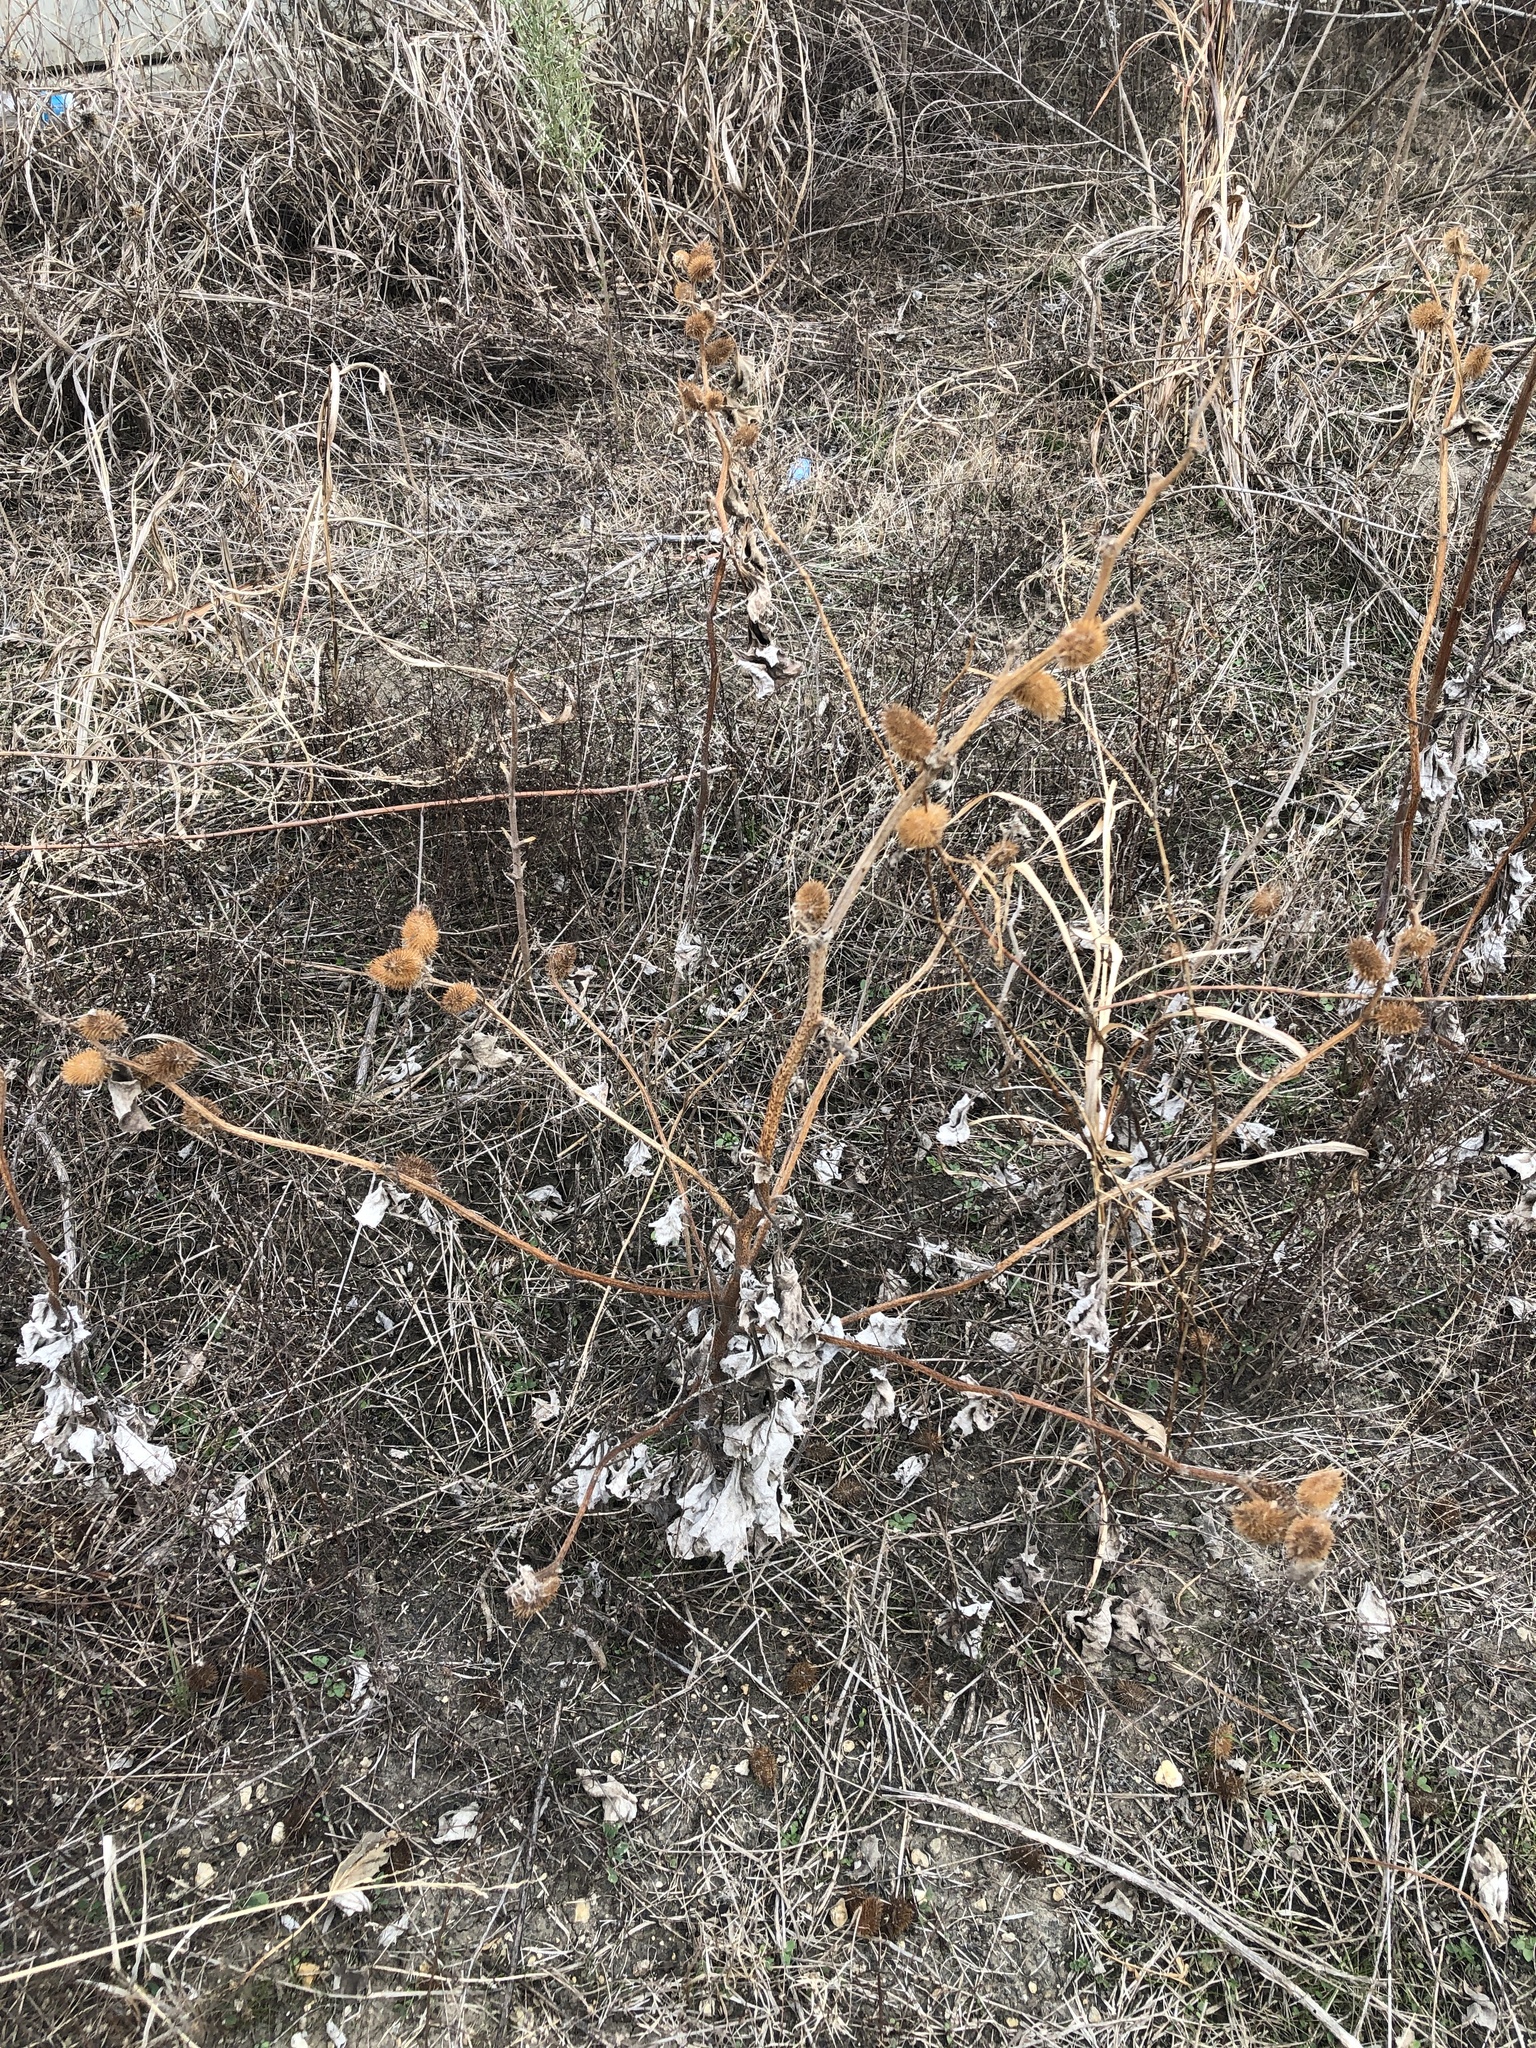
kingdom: Plantae
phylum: Tracheophyta
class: Magnoliopsida
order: Asterales
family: Asteraceae
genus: Xanthium
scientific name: Xanthium strumarium
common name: Rough cocklebur
